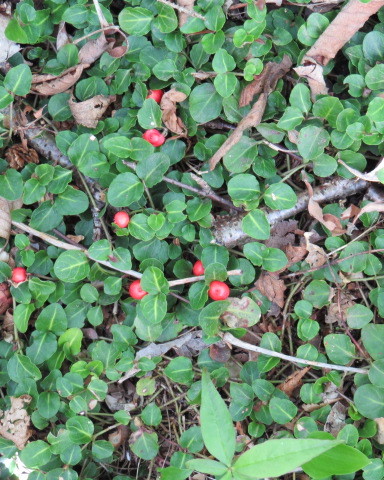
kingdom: Plantae
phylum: Tracheophyta
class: Magnoliopsida
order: Gentianales
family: Rubiaceae
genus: Mitchella
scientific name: Mitchella repens
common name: Partridge-berry
